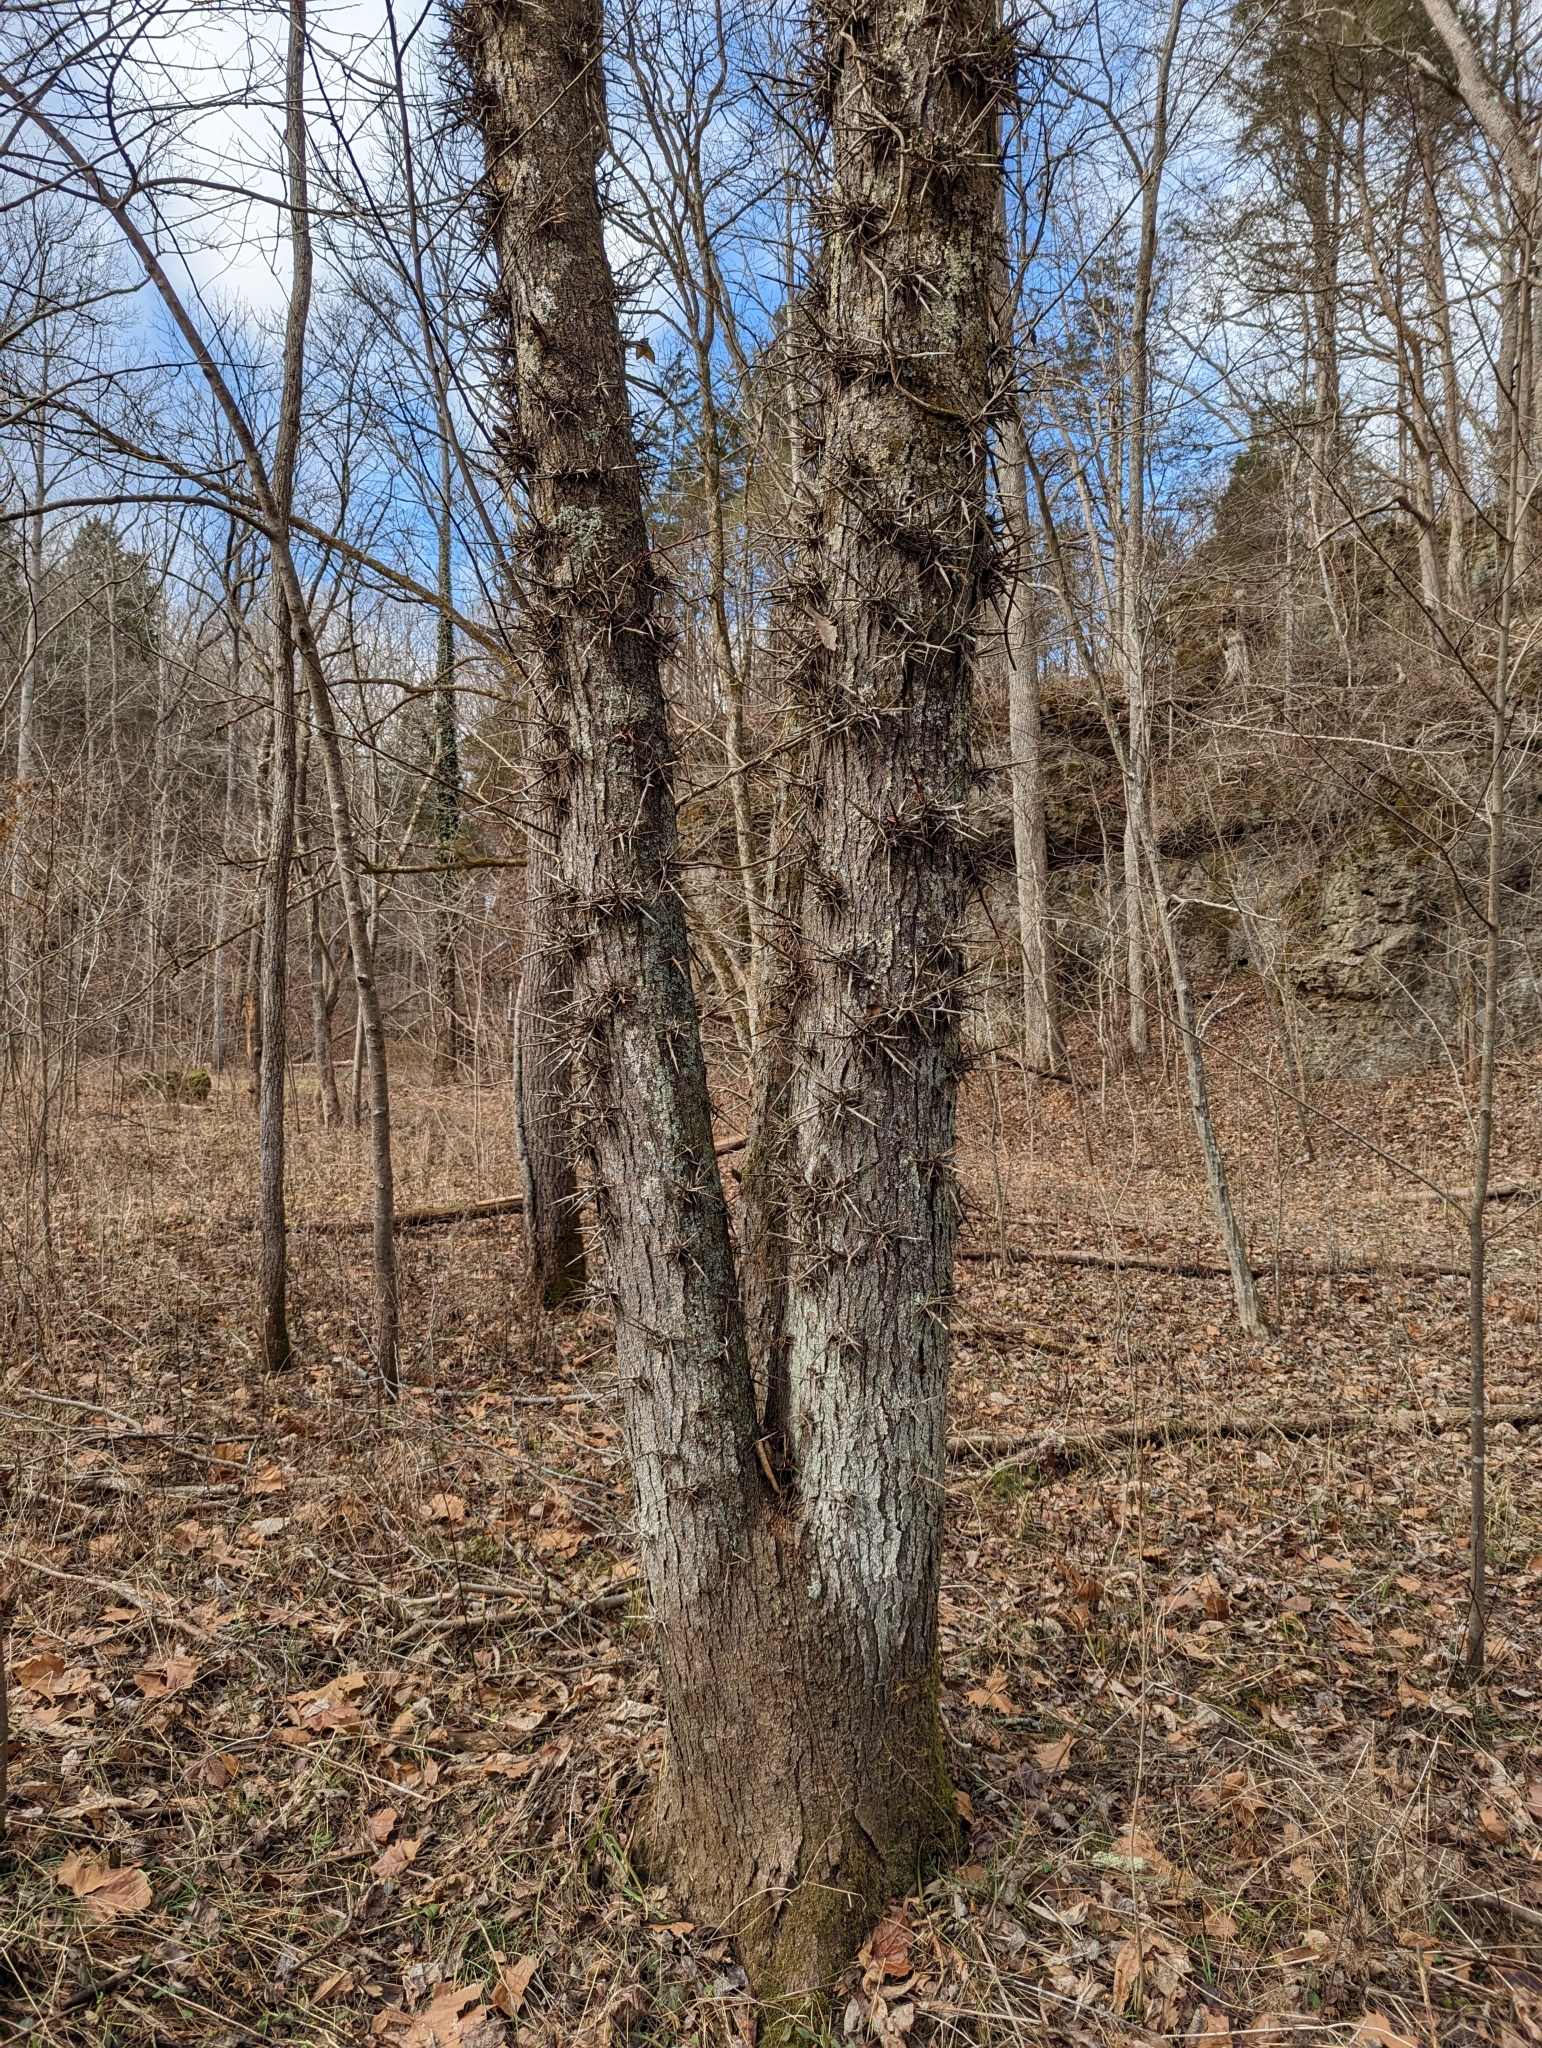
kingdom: Plantae
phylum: Tracheophyta
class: Magnoliopsida
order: Fabales
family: Fabaceae
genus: Gleditsia
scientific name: Gleditsia triacanthos
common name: Common honeylocust
